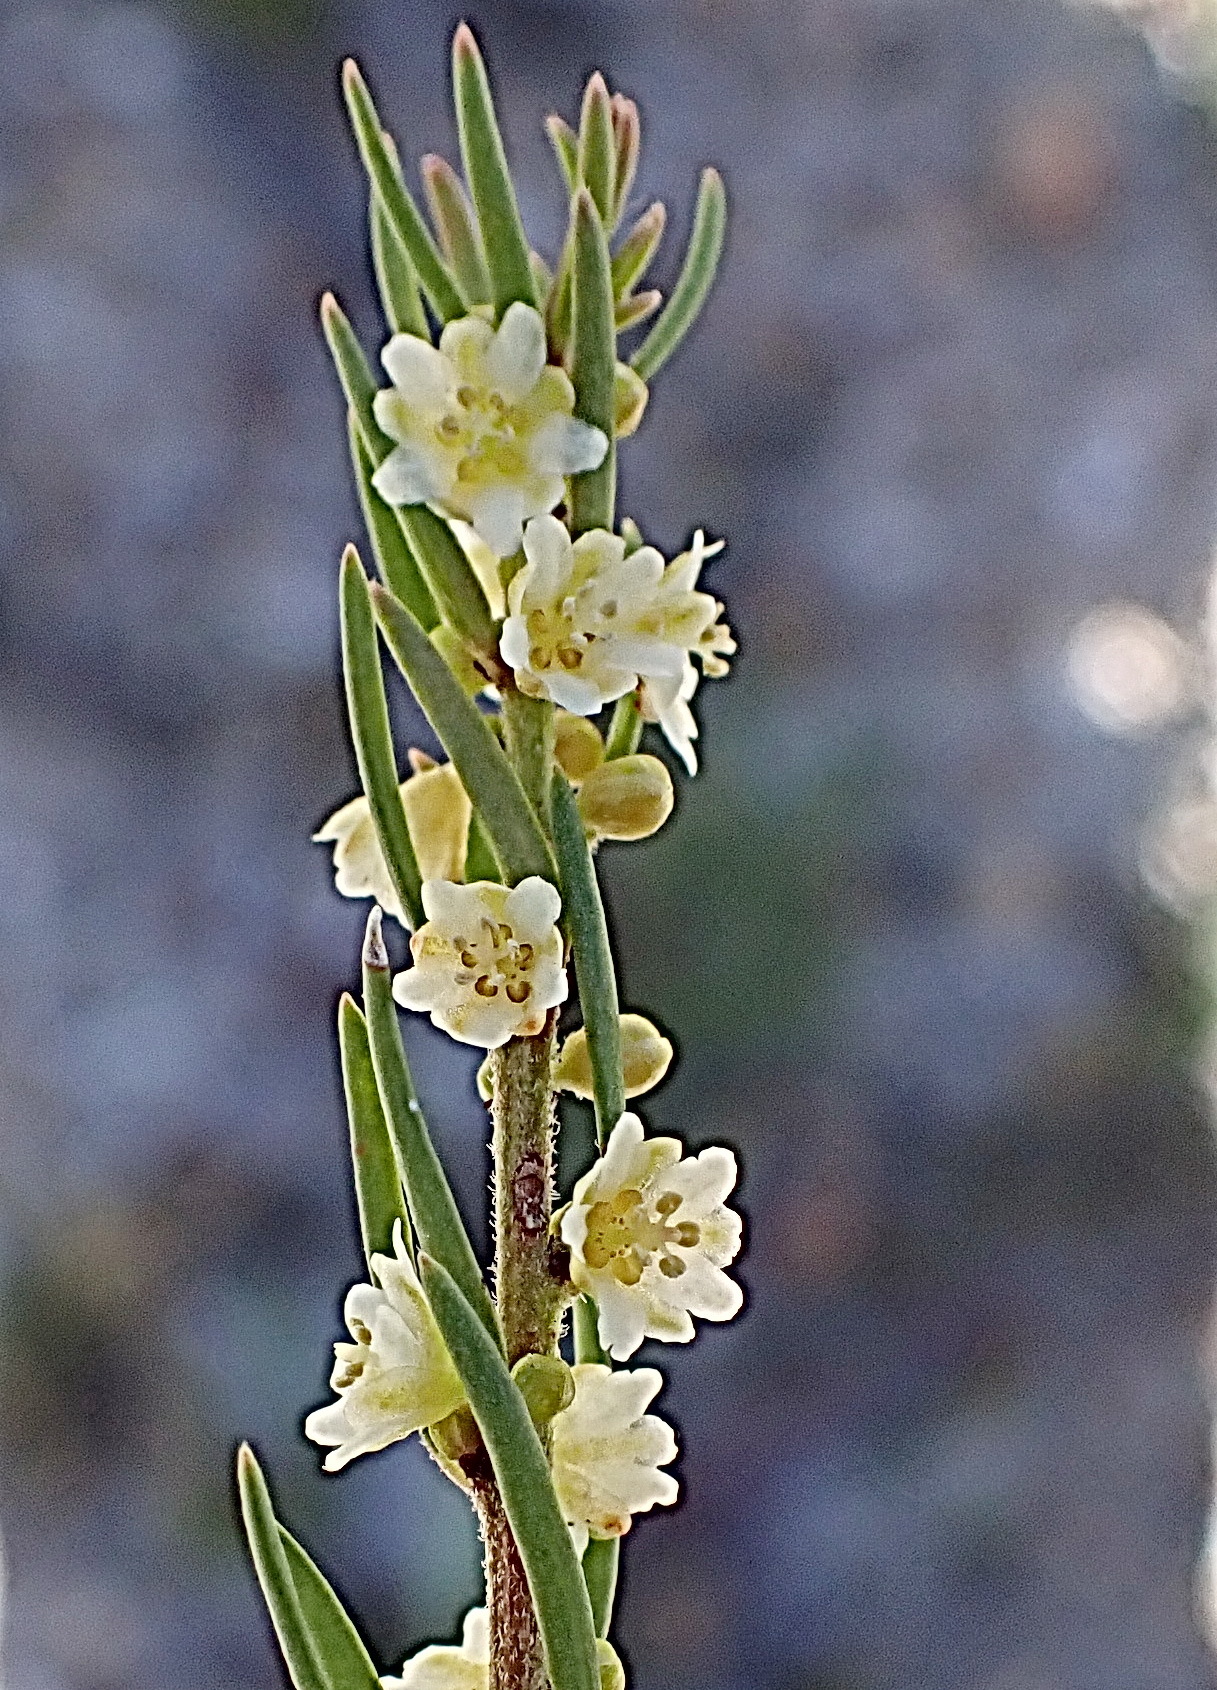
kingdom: Plantae
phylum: Tracheophyta
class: Magnoliopsida
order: Malpighiales
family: Peraceae
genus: Clutia
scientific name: Clutia ericoides
